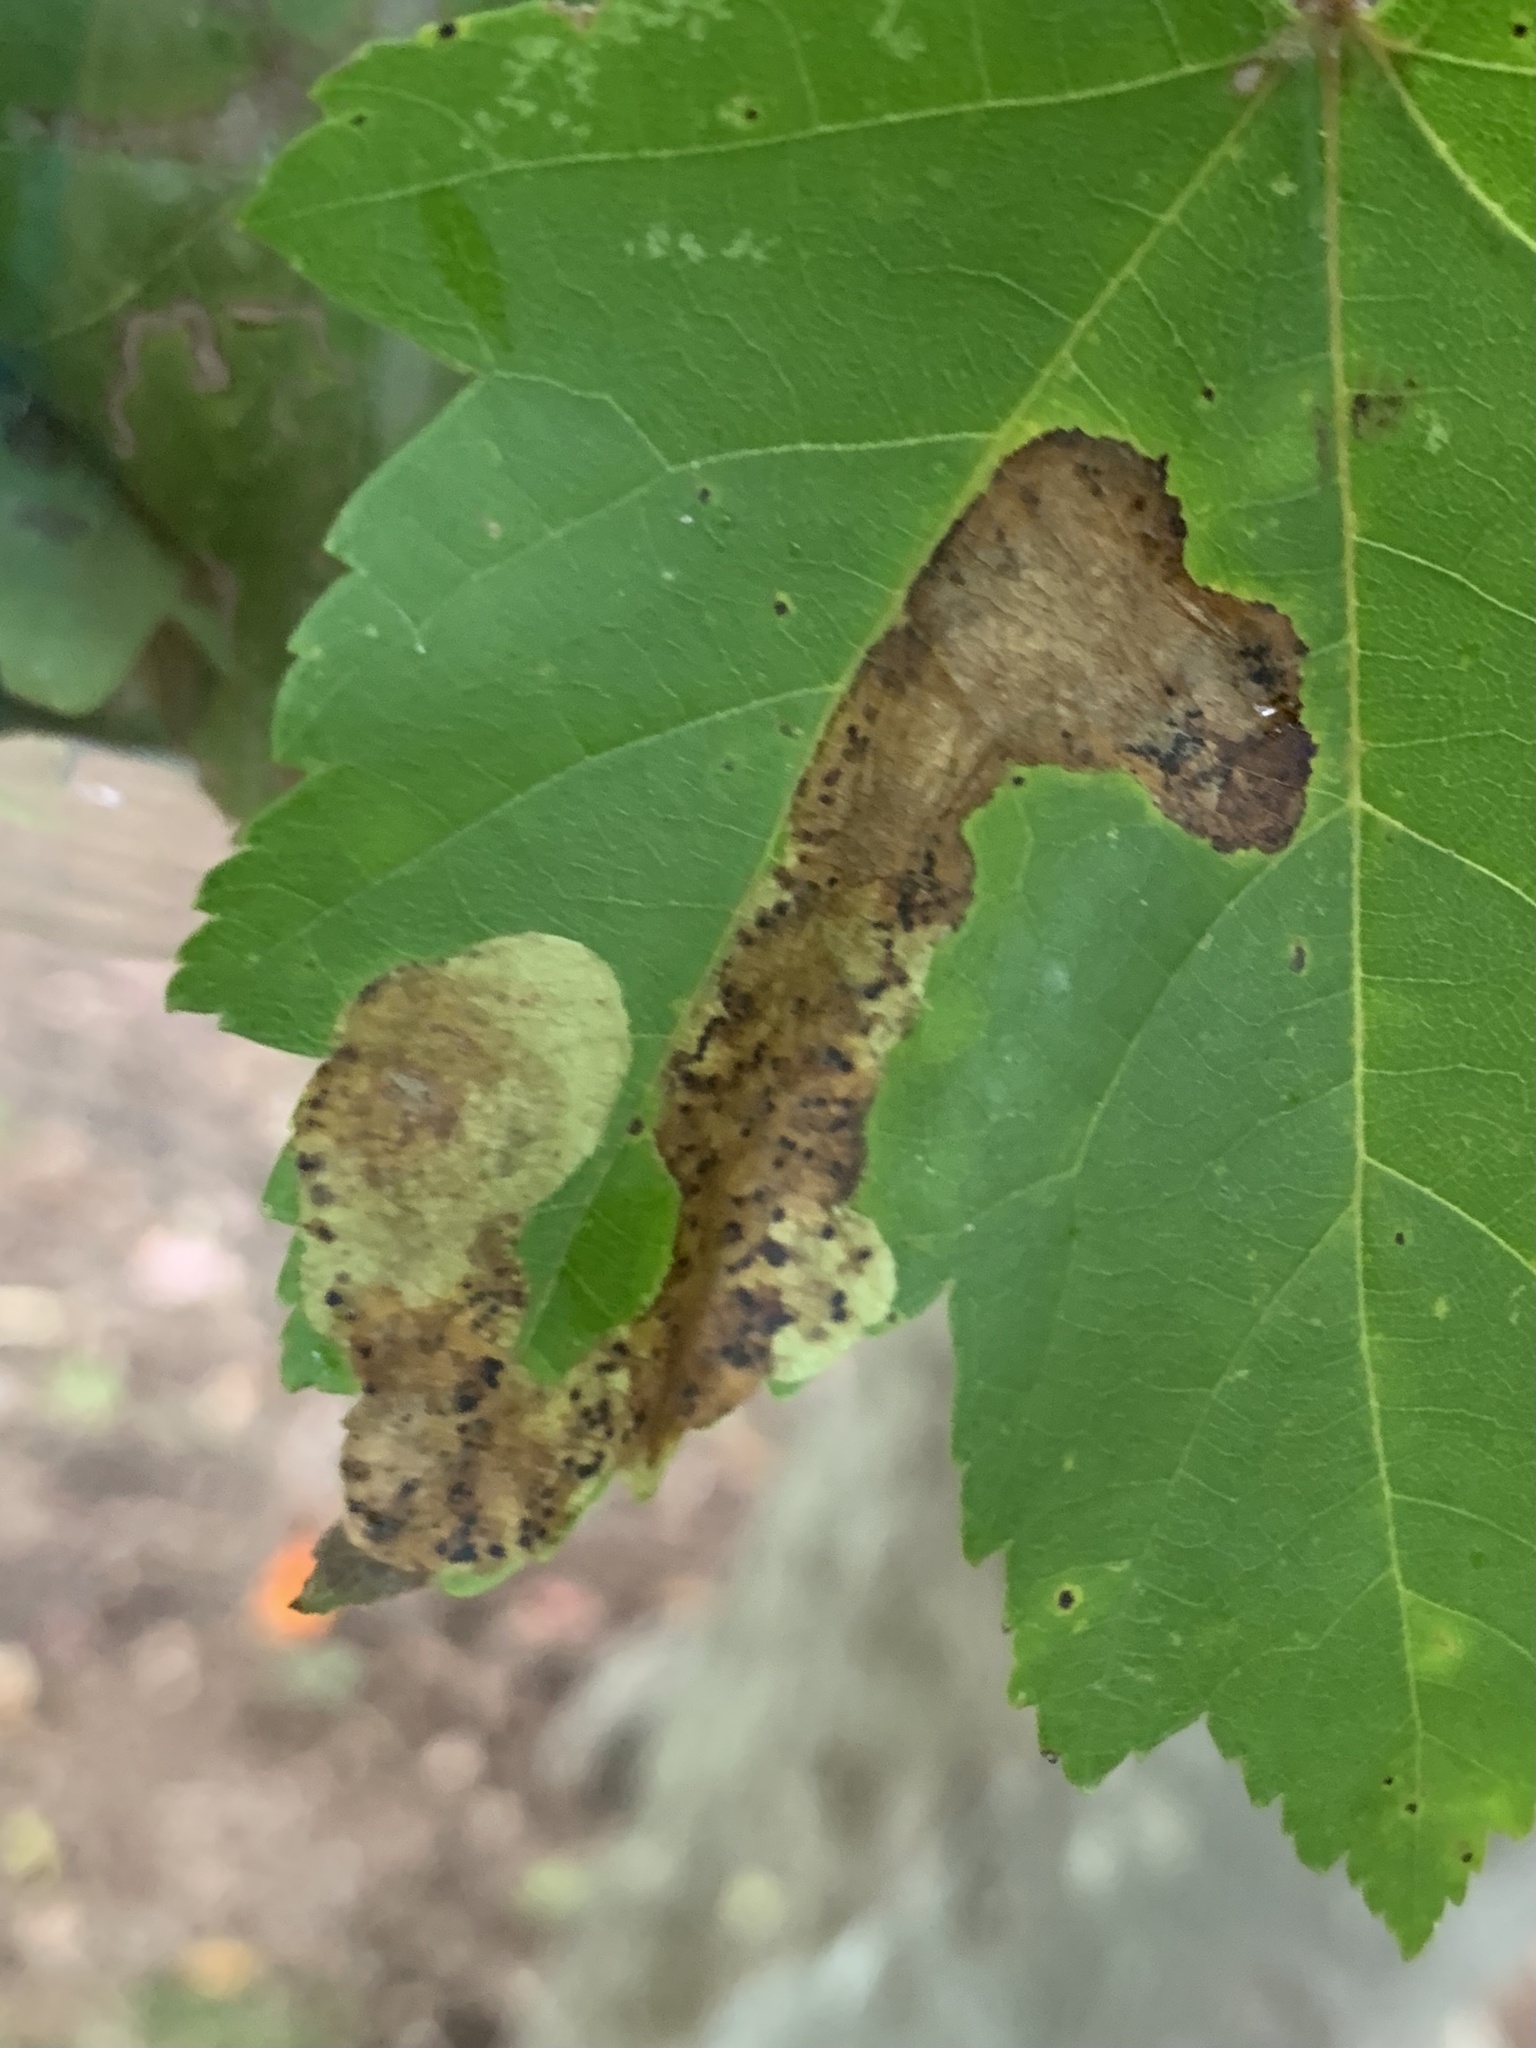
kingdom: Animalia
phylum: Arthropoda
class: Insecta
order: Lepidoptera
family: Gracillariidae
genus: Cameraria
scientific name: Cameraria aceriella
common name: Maple leafblotch miner
